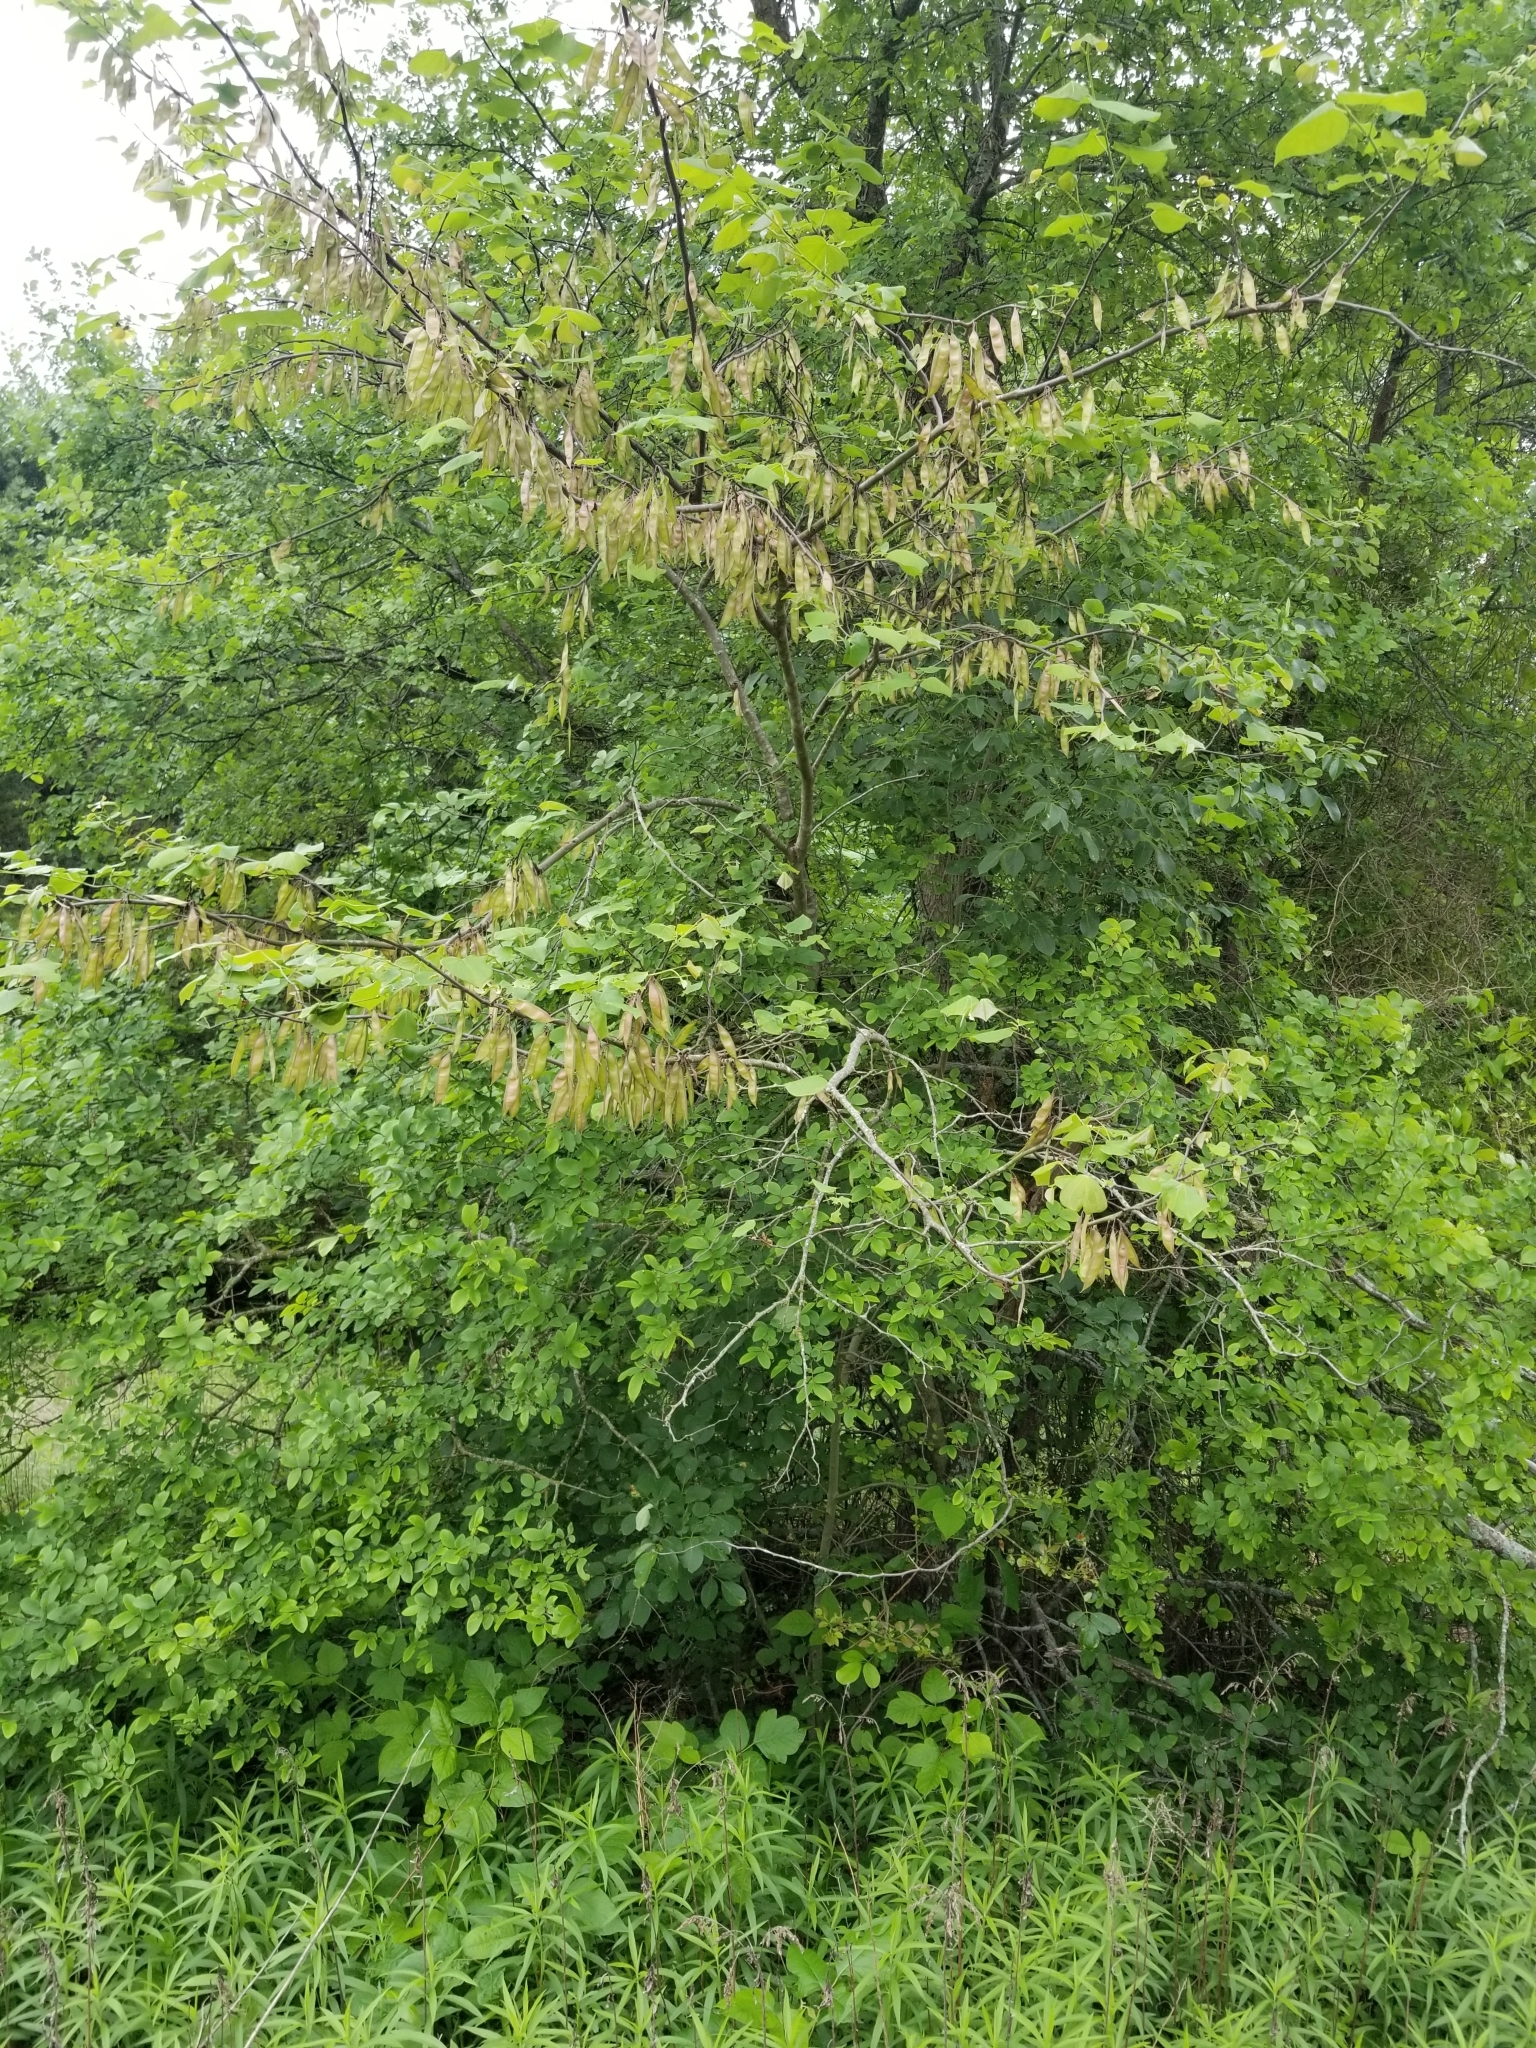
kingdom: Plantae
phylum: Tracheophyta
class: Magnoliopsida
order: Fabales
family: Fabaceae
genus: Cercis
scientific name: Cercis canadensis
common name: Eastern redbud
